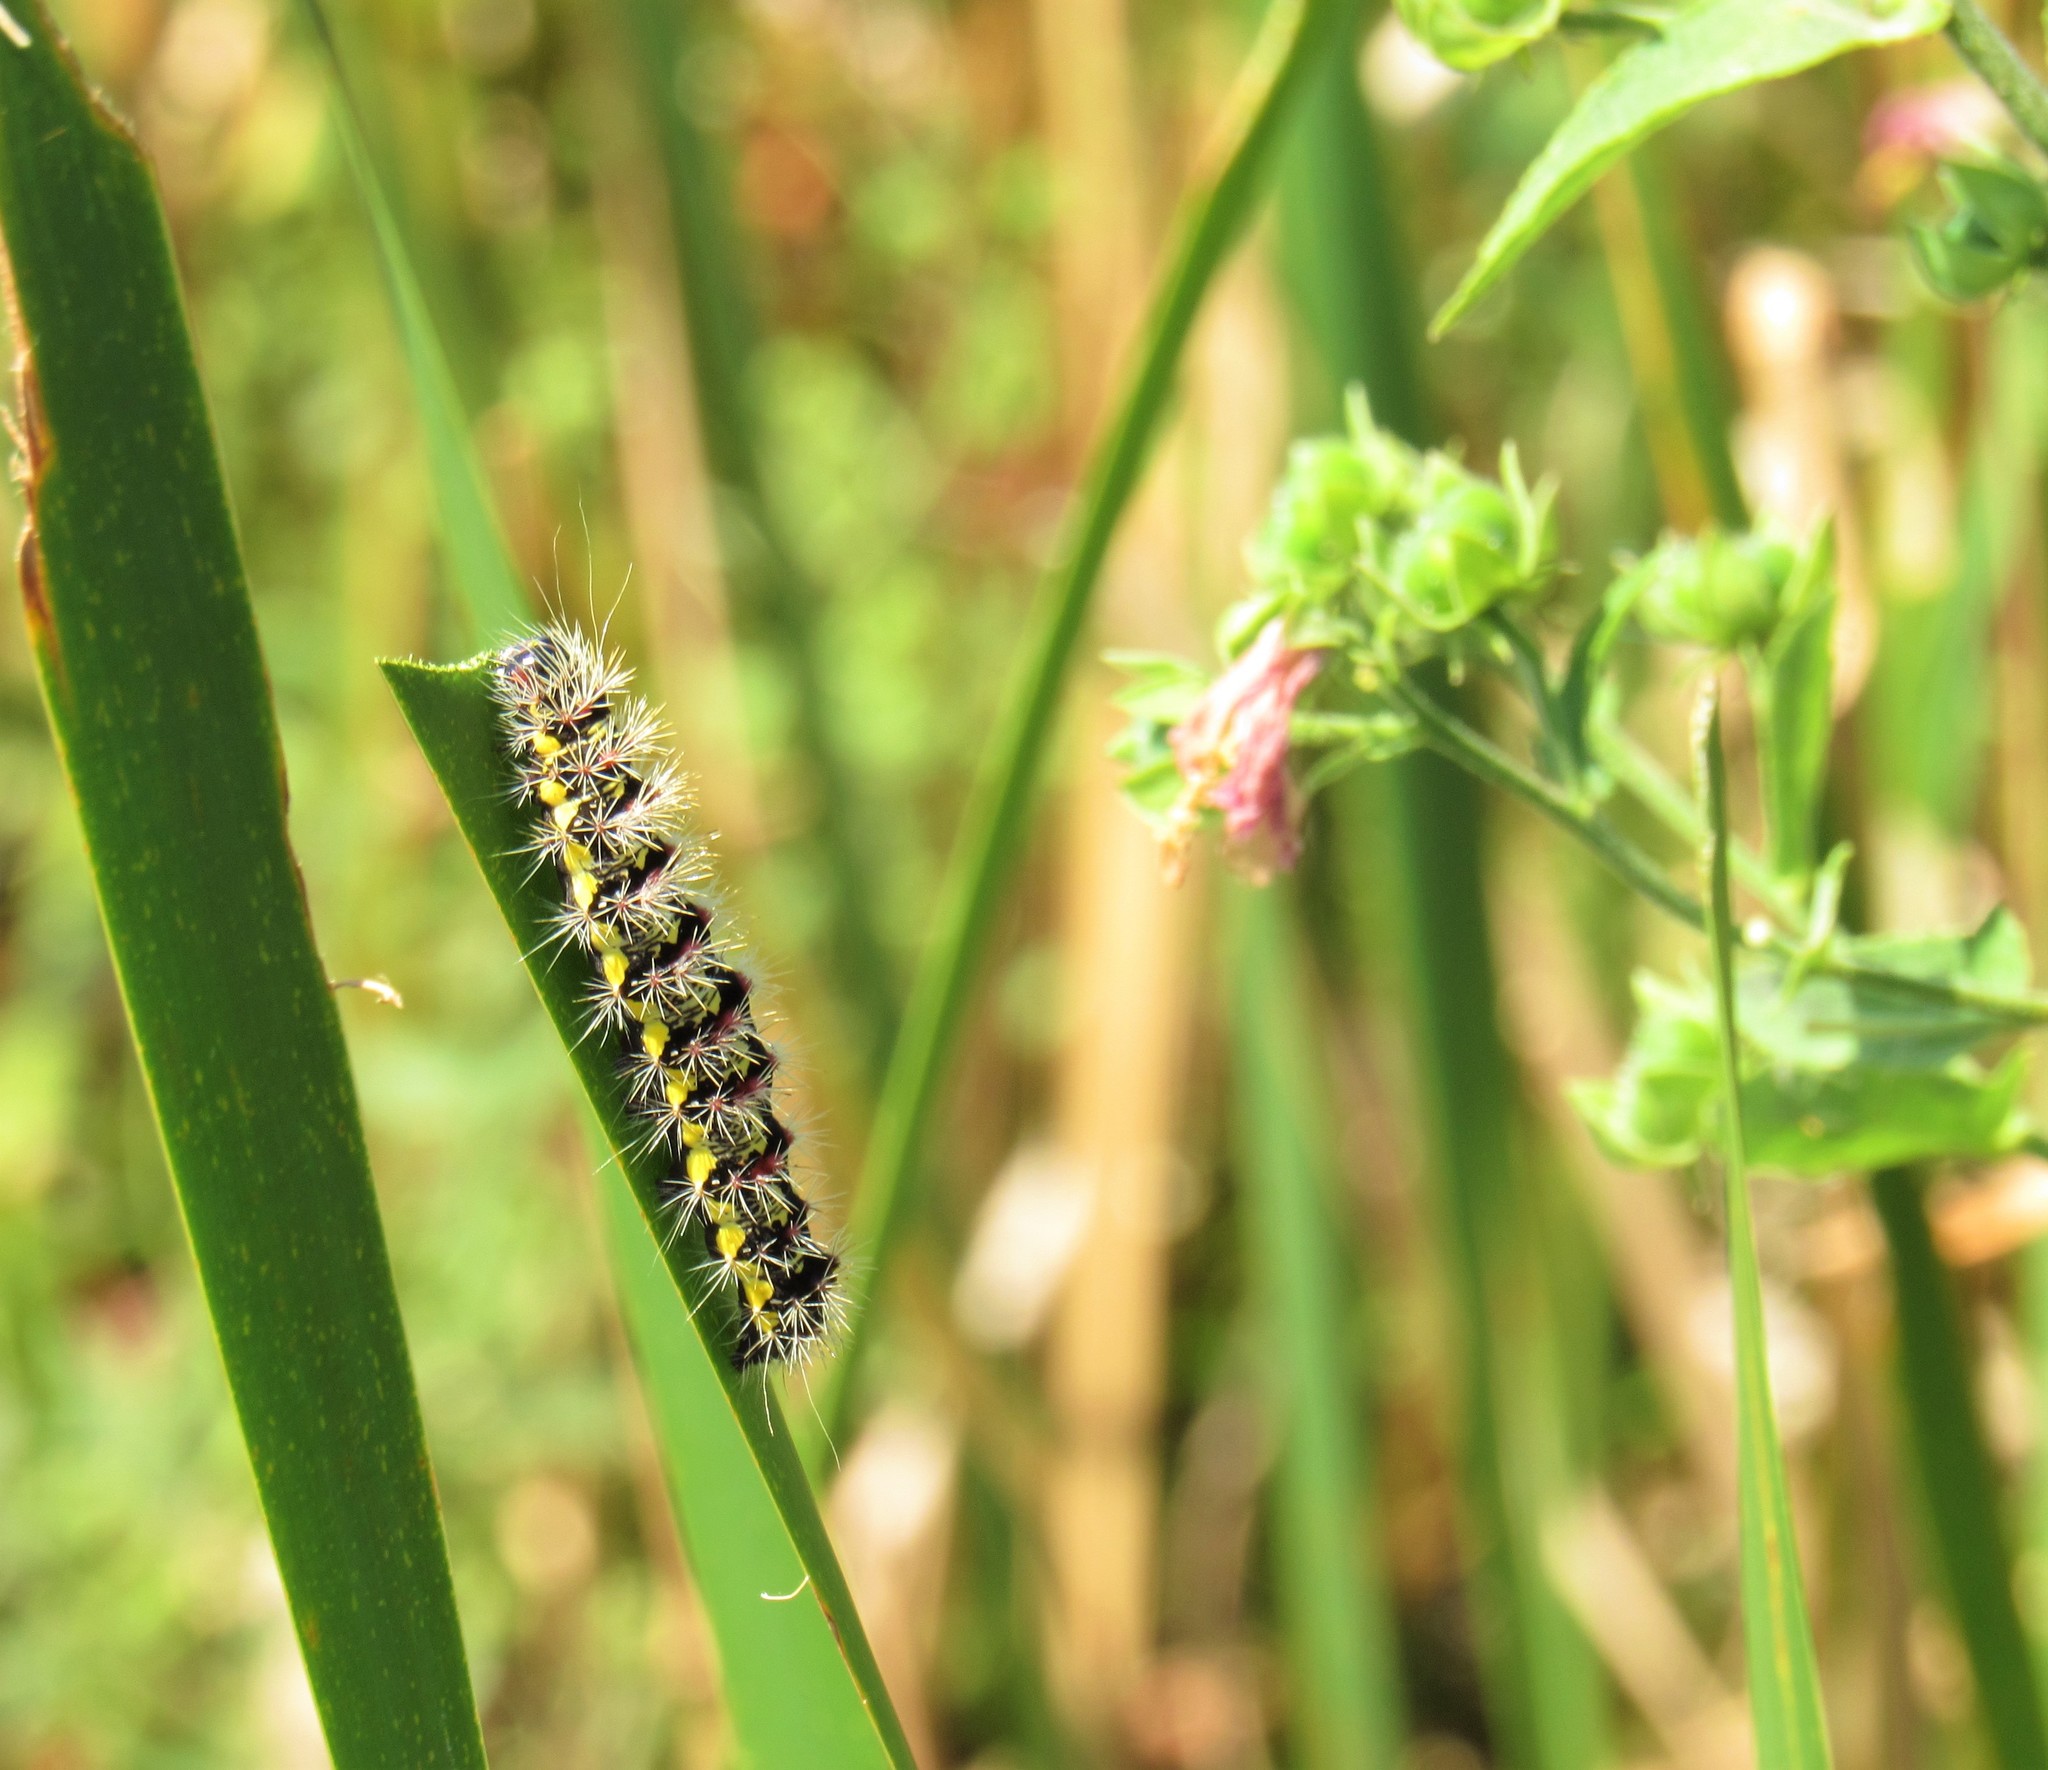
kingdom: Animalia
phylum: Arthropoda
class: Insecta
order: Lepidoptera
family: Noctuidae
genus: Acronicta
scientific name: Acronicta oblinita
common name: Smeared dagger
